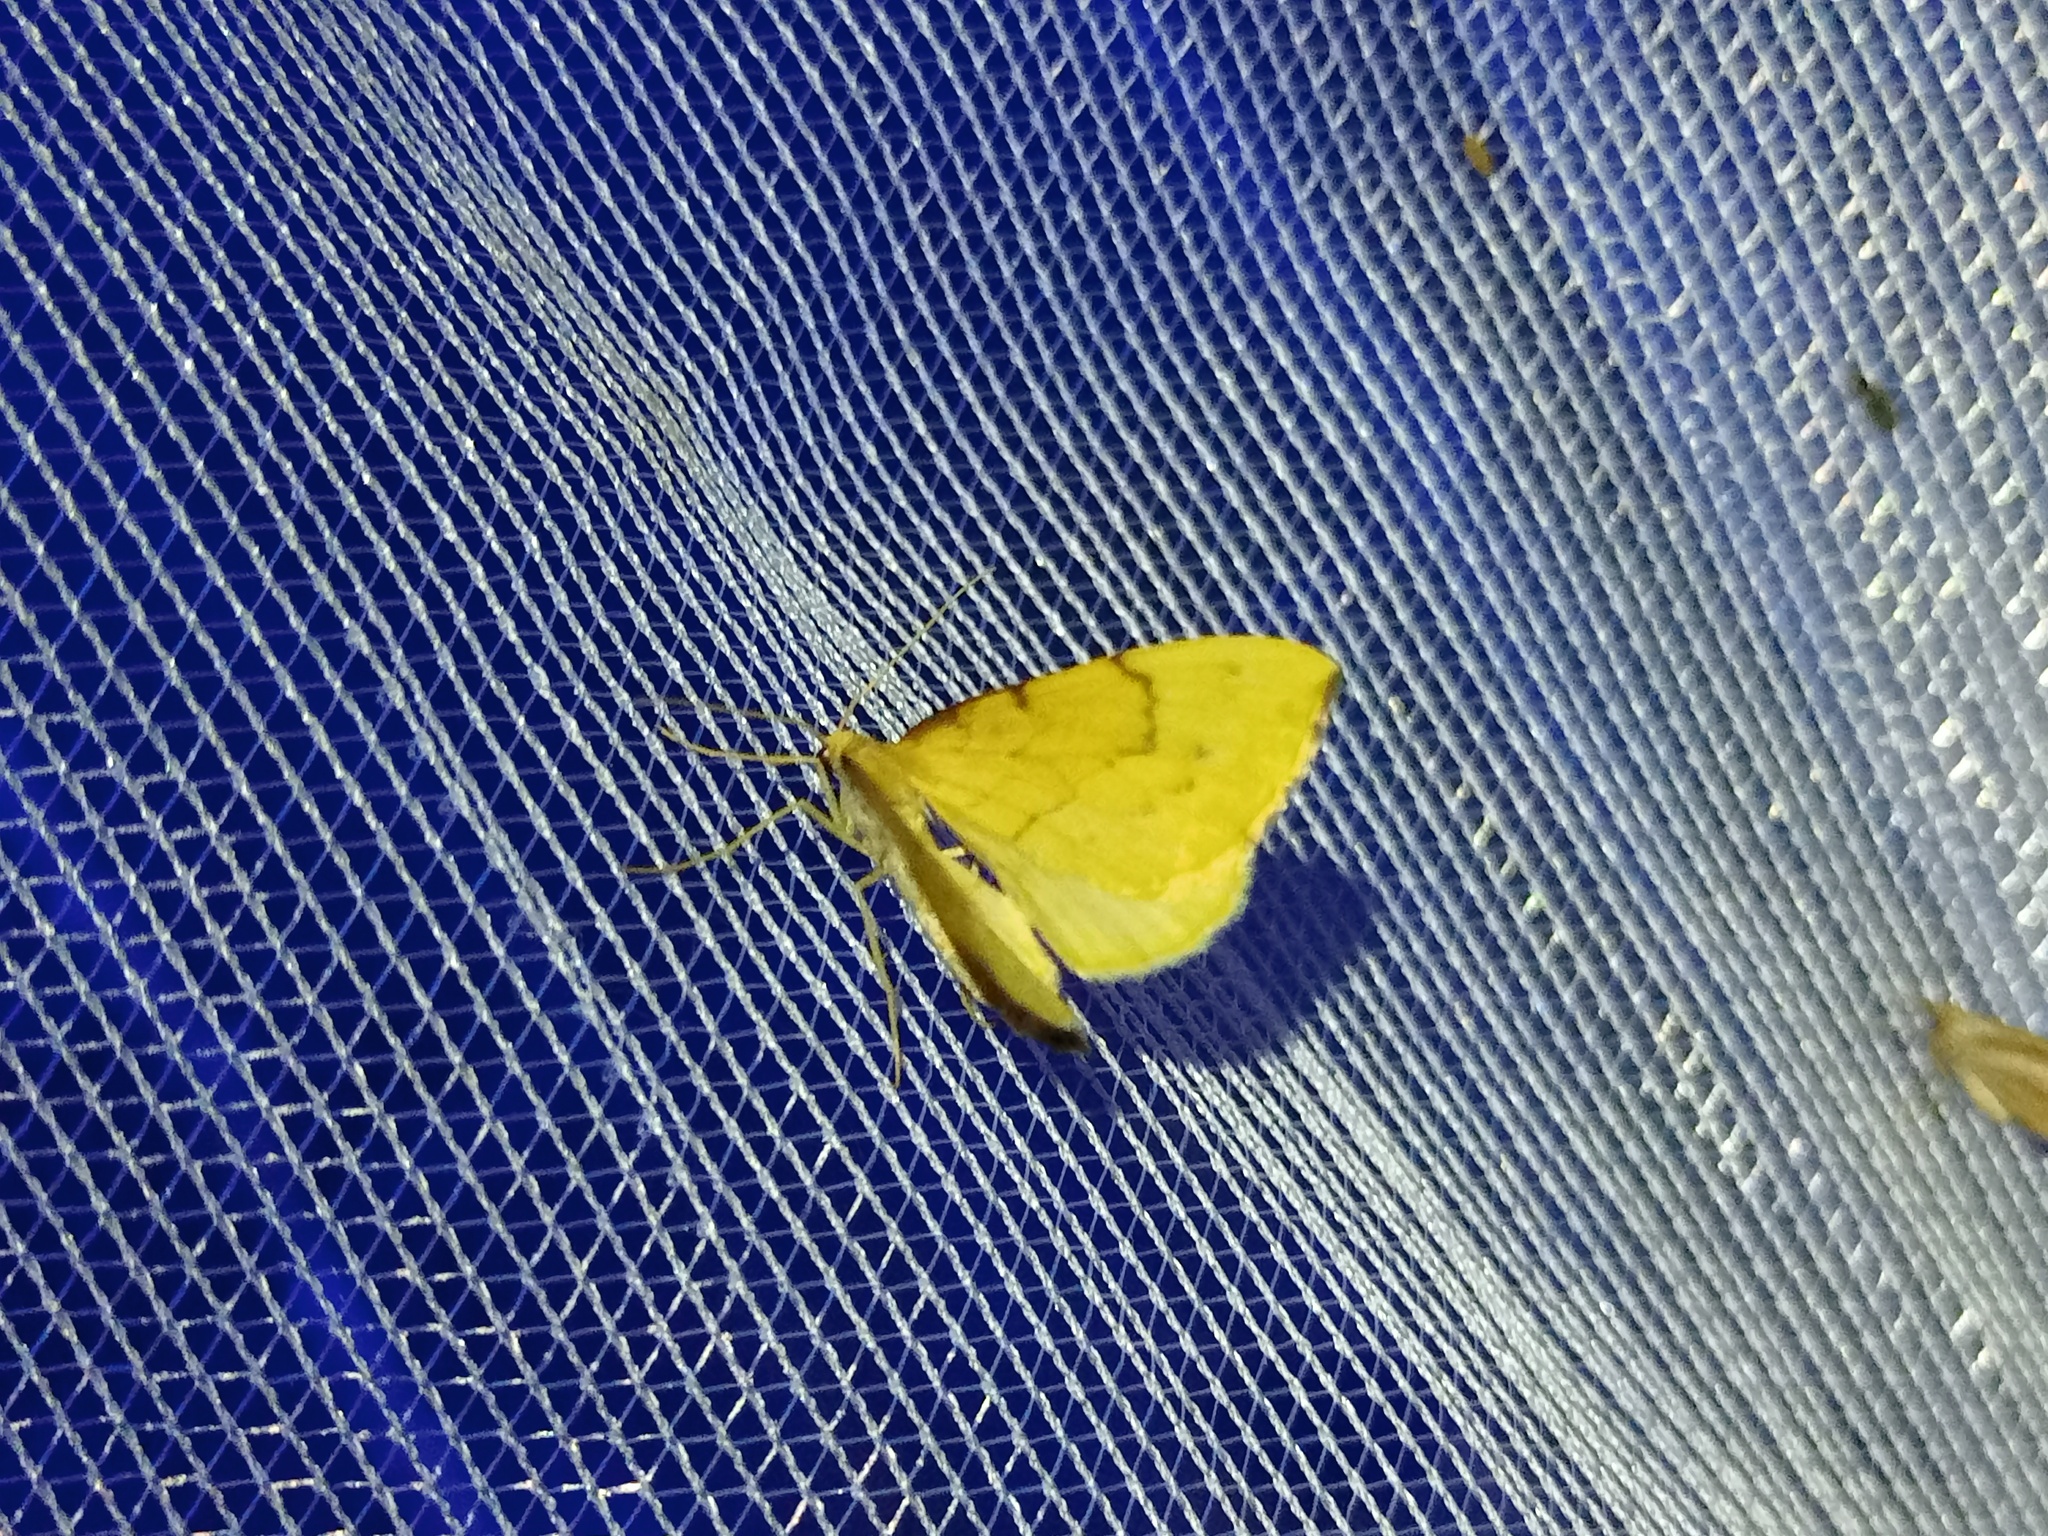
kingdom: Animalia
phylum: Arthropoda
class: Insecta
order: Lepidoptera
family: Geometridae
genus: Eulithis
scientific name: Eulithis pyraliata
